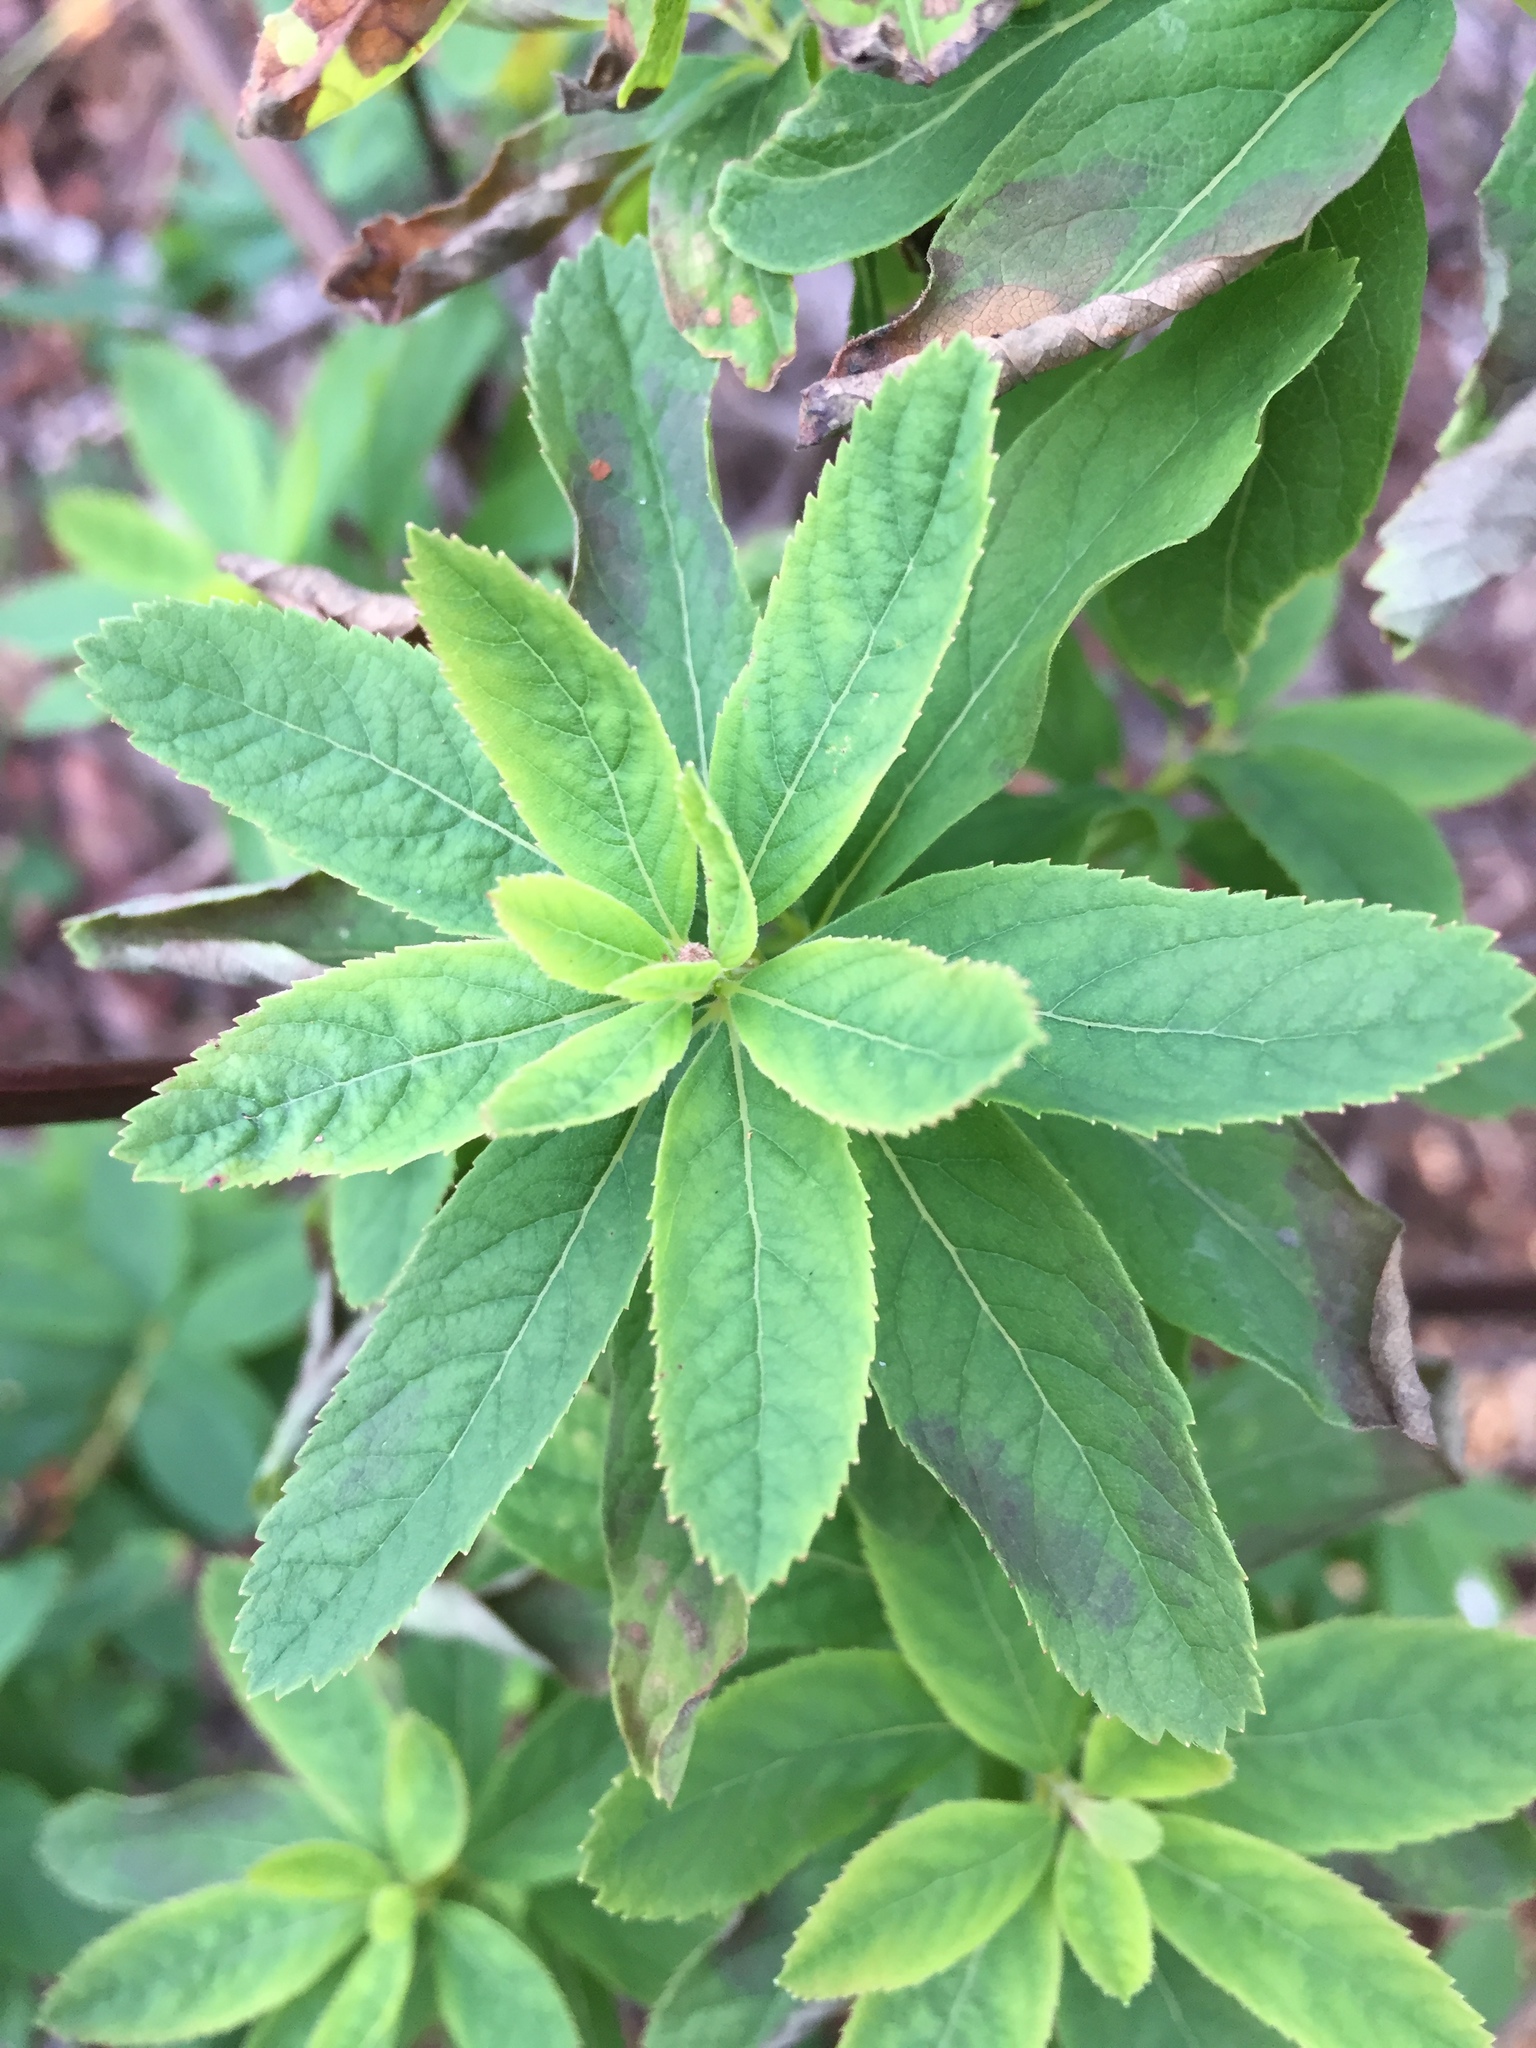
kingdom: Plantae
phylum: Tracheophyta
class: Magnoliopsida
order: Rosales
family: Rosaceae
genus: Spiraea
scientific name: Spiraea douglasii
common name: Steeplebush
